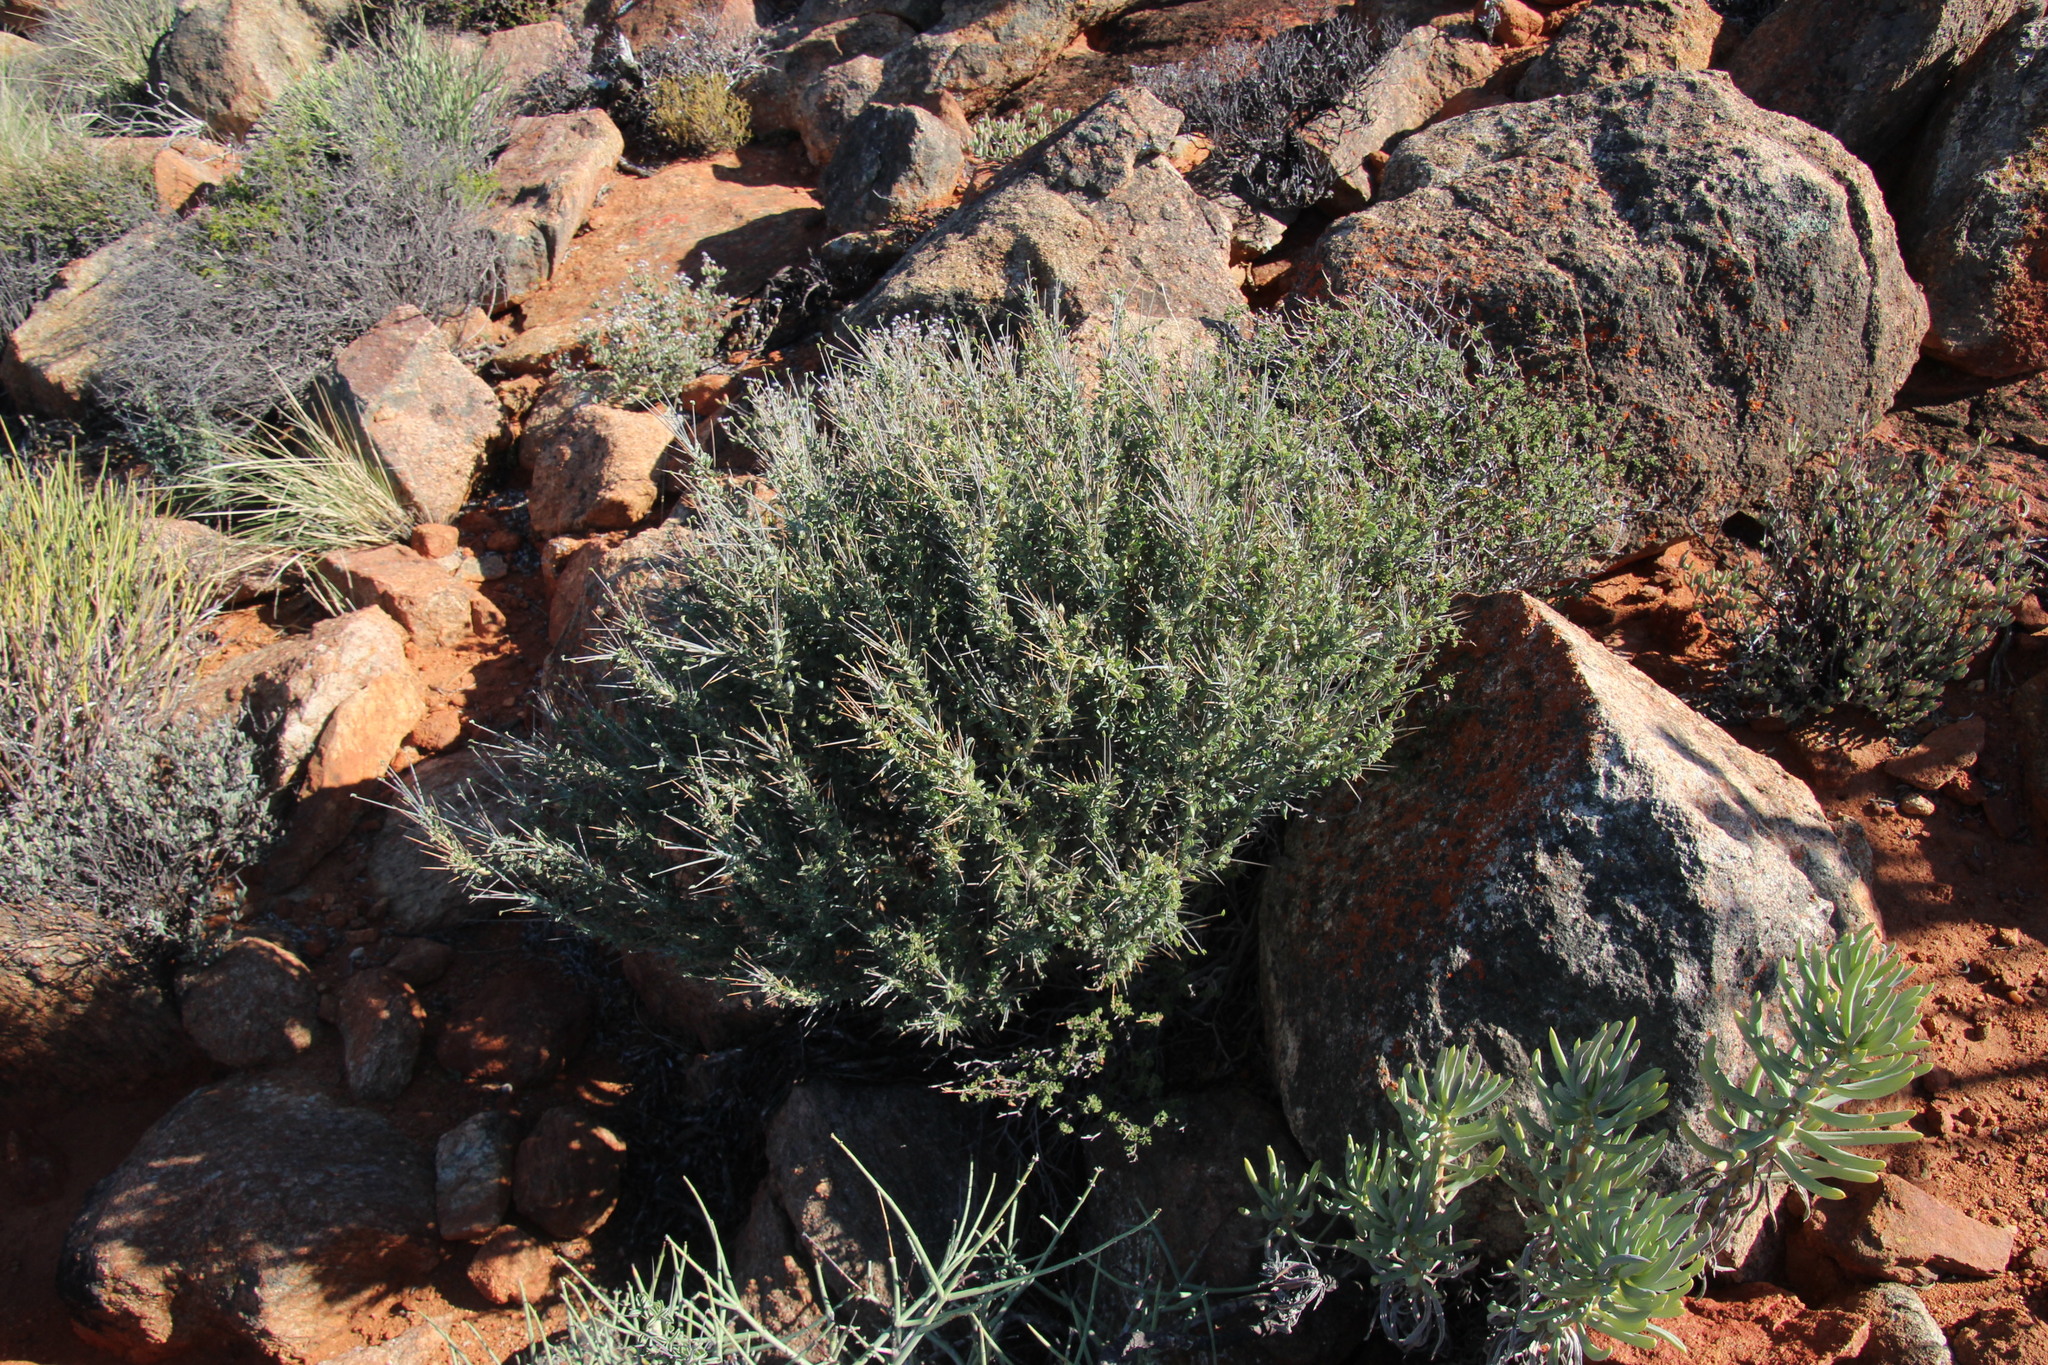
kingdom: Plantae
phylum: Tracheophyta
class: Magnoliopsida
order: Geraniales
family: Geraniaceae
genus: Monsonia
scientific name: Monsonia spinosa
